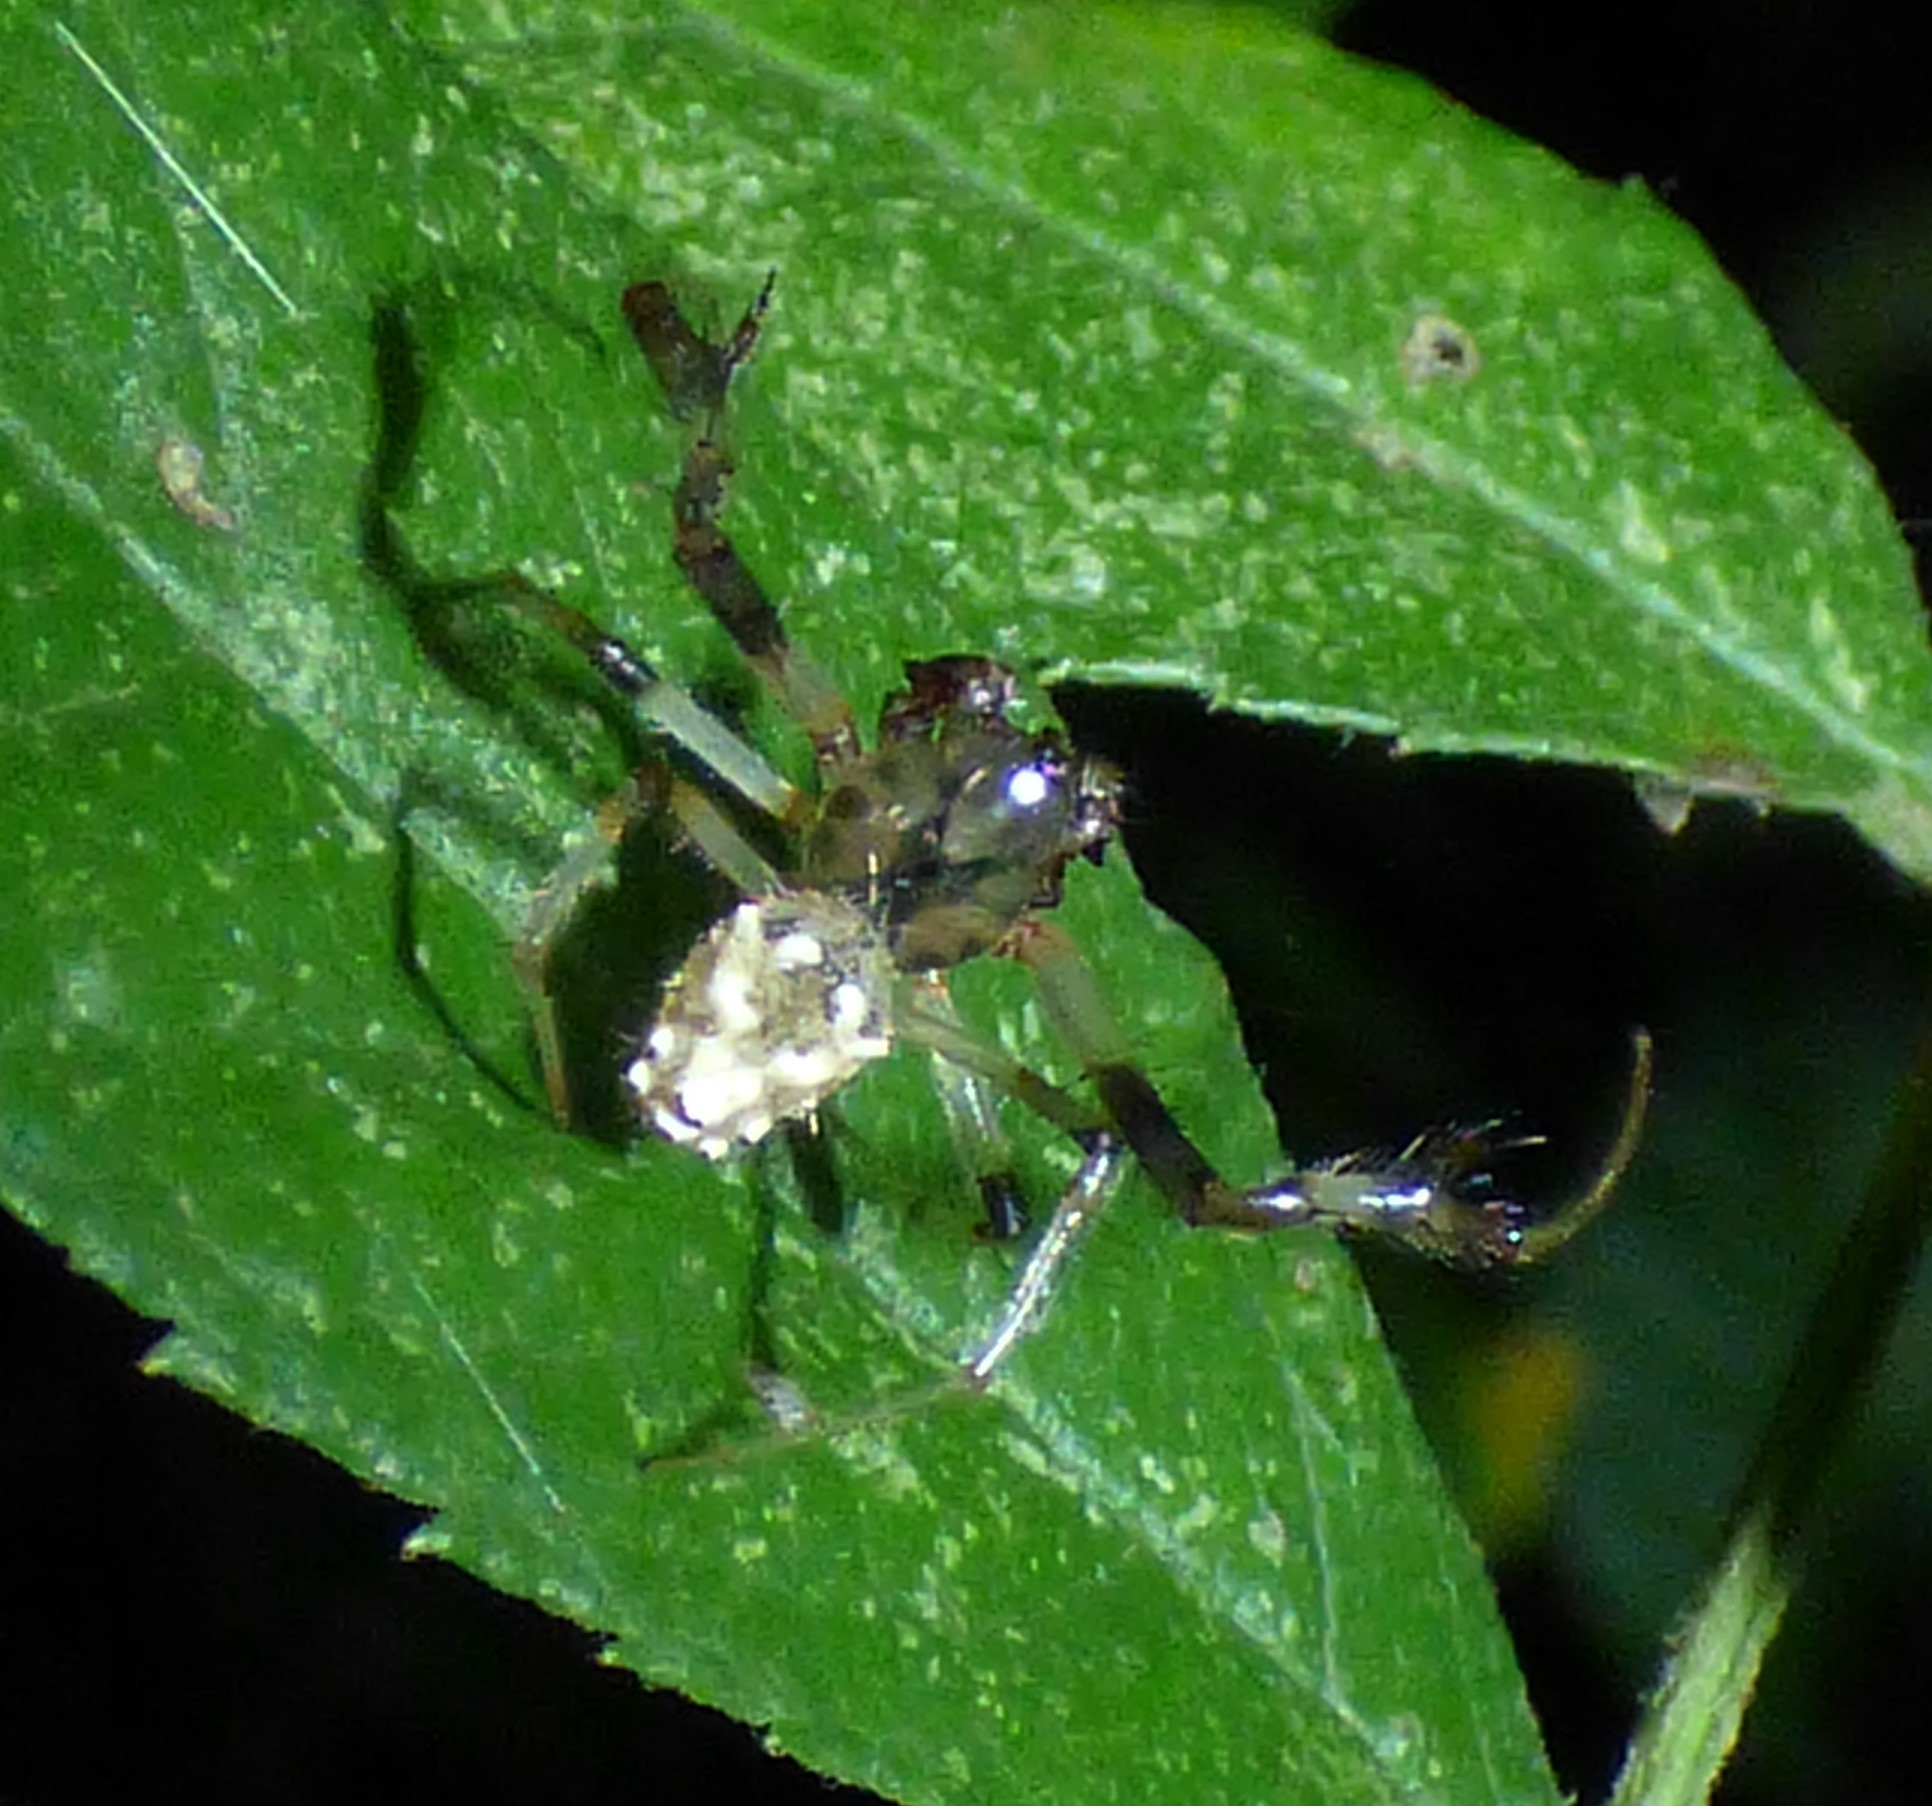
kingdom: Animalia
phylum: Arthropoda
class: Arachnida
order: Araneae
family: Araneidae
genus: Verrucosa
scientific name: Verrucosa arenata
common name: Orb weavers
